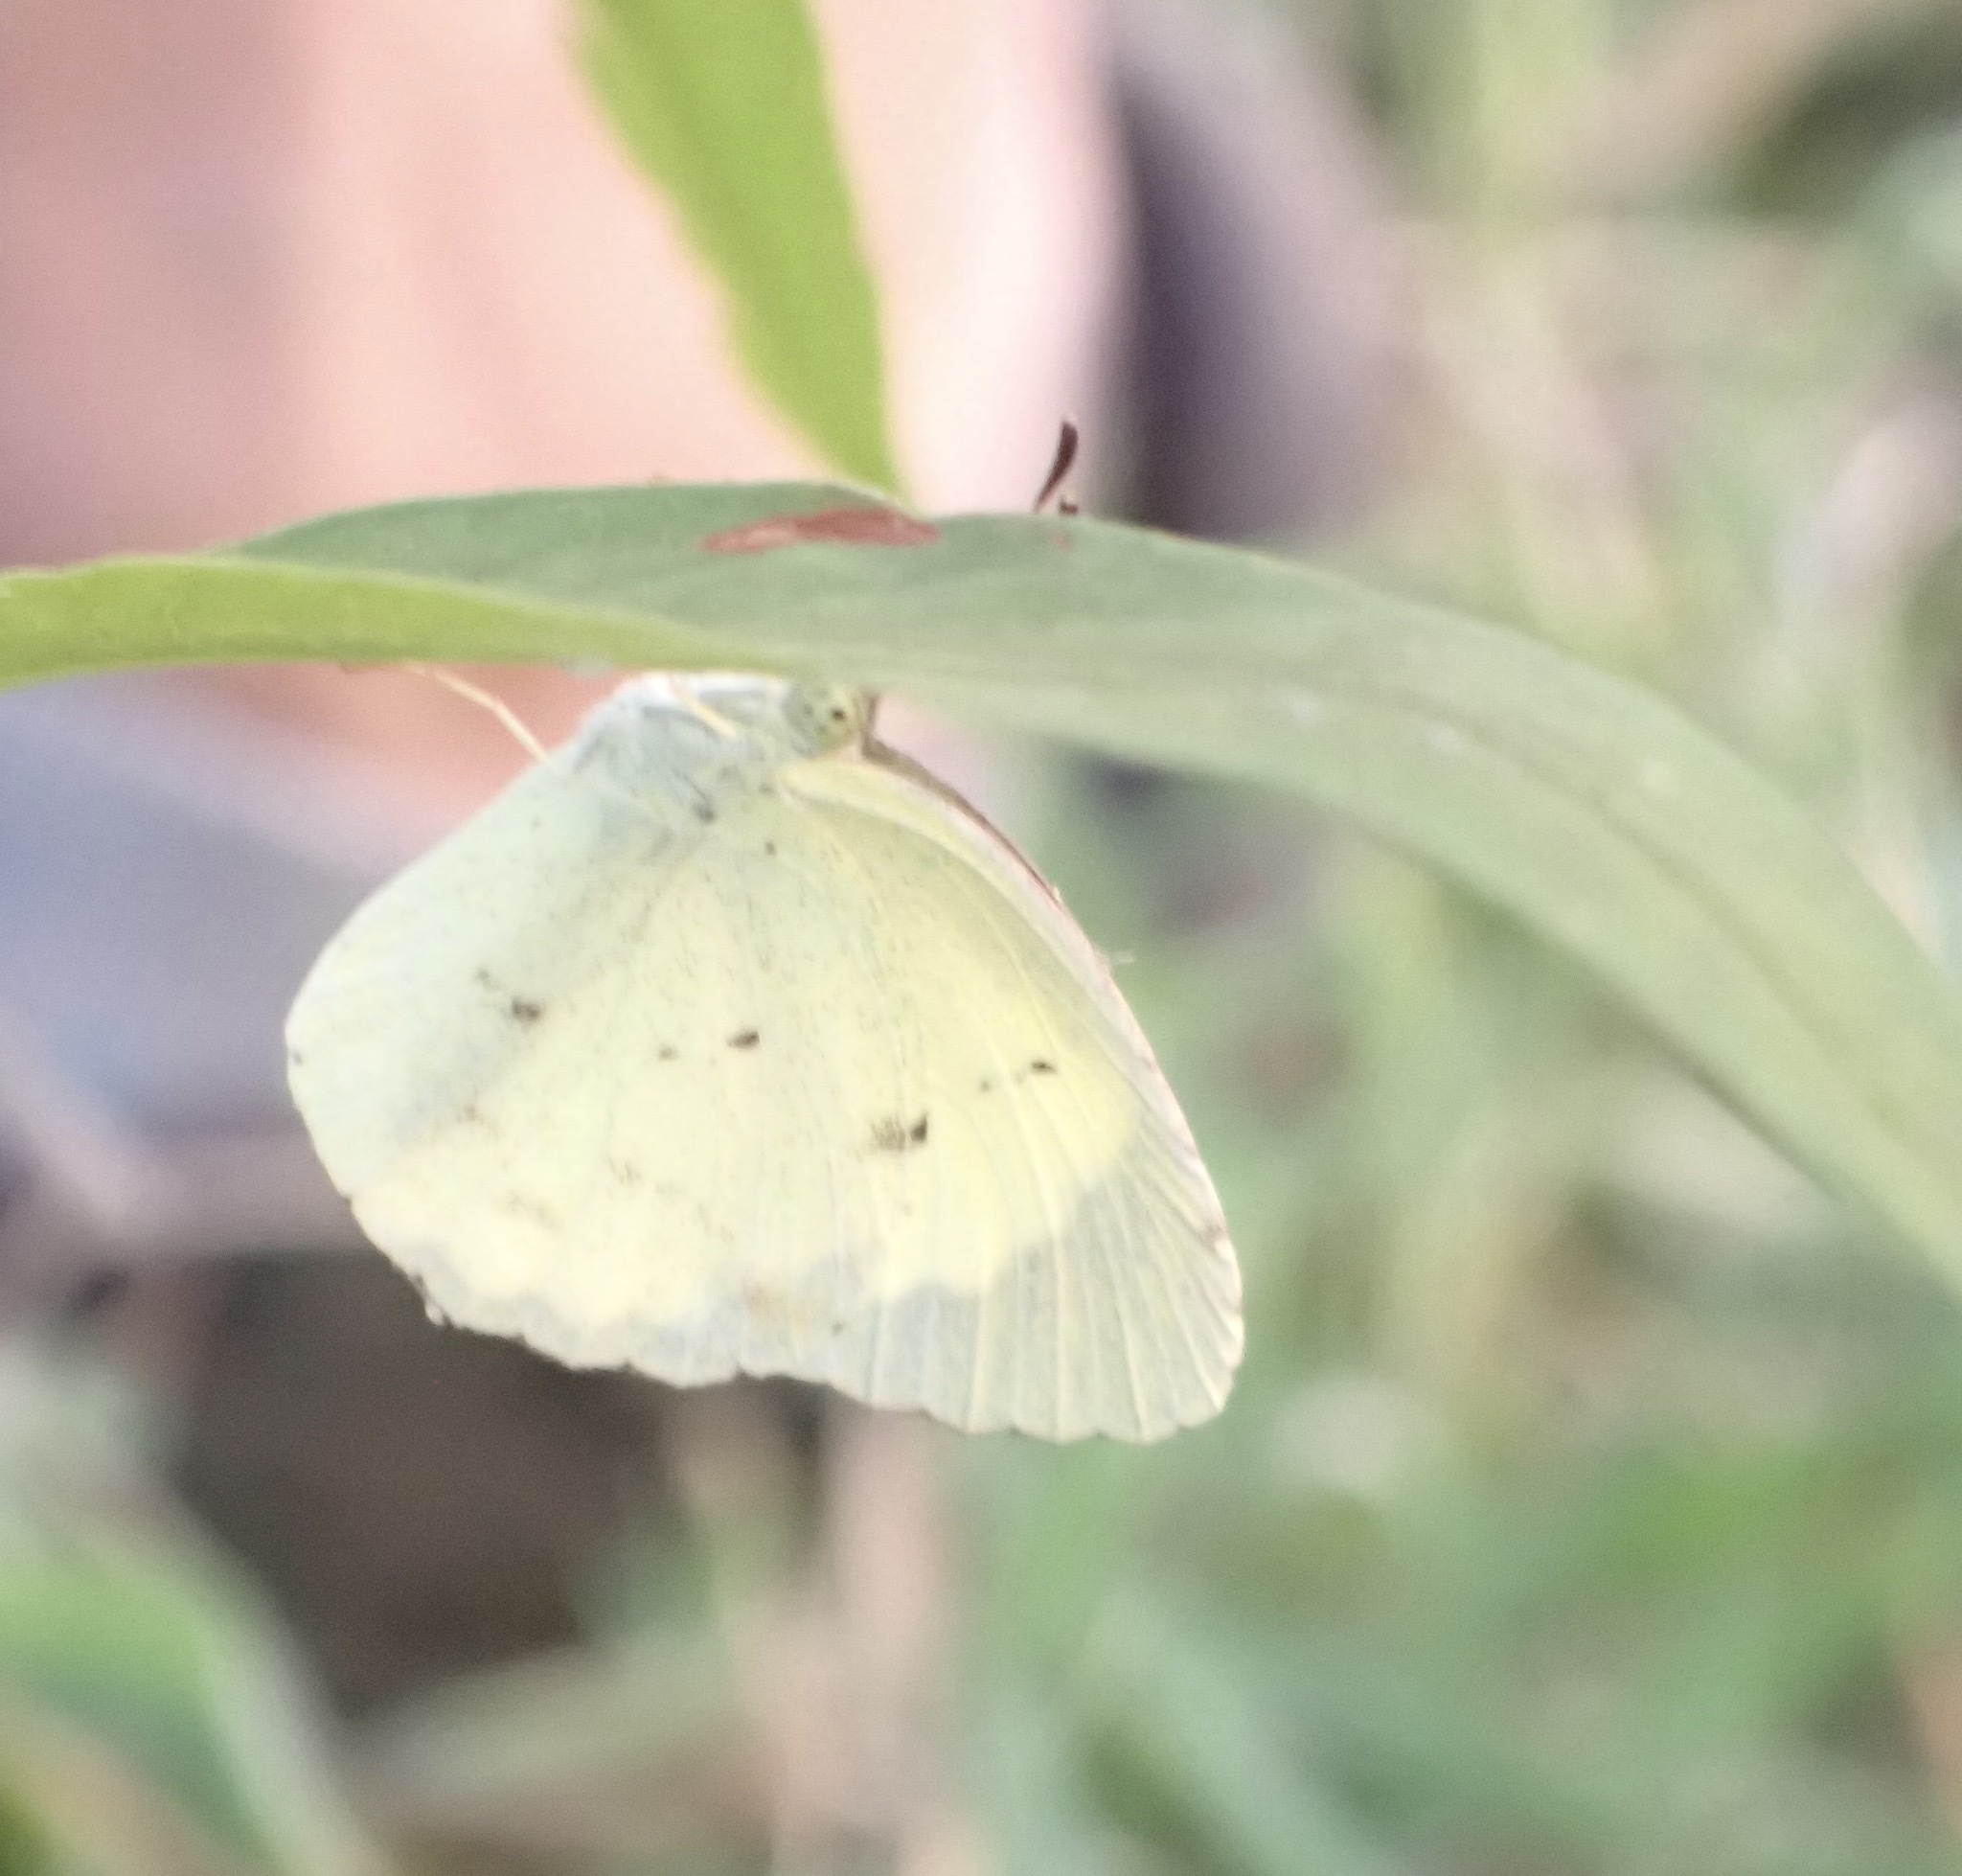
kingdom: Animalia
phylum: Arthropoda
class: Insecta
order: Lepidoptera
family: Pieridae
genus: Pyrisitia
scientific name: Pyrisitia lisa
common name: Little yellow
